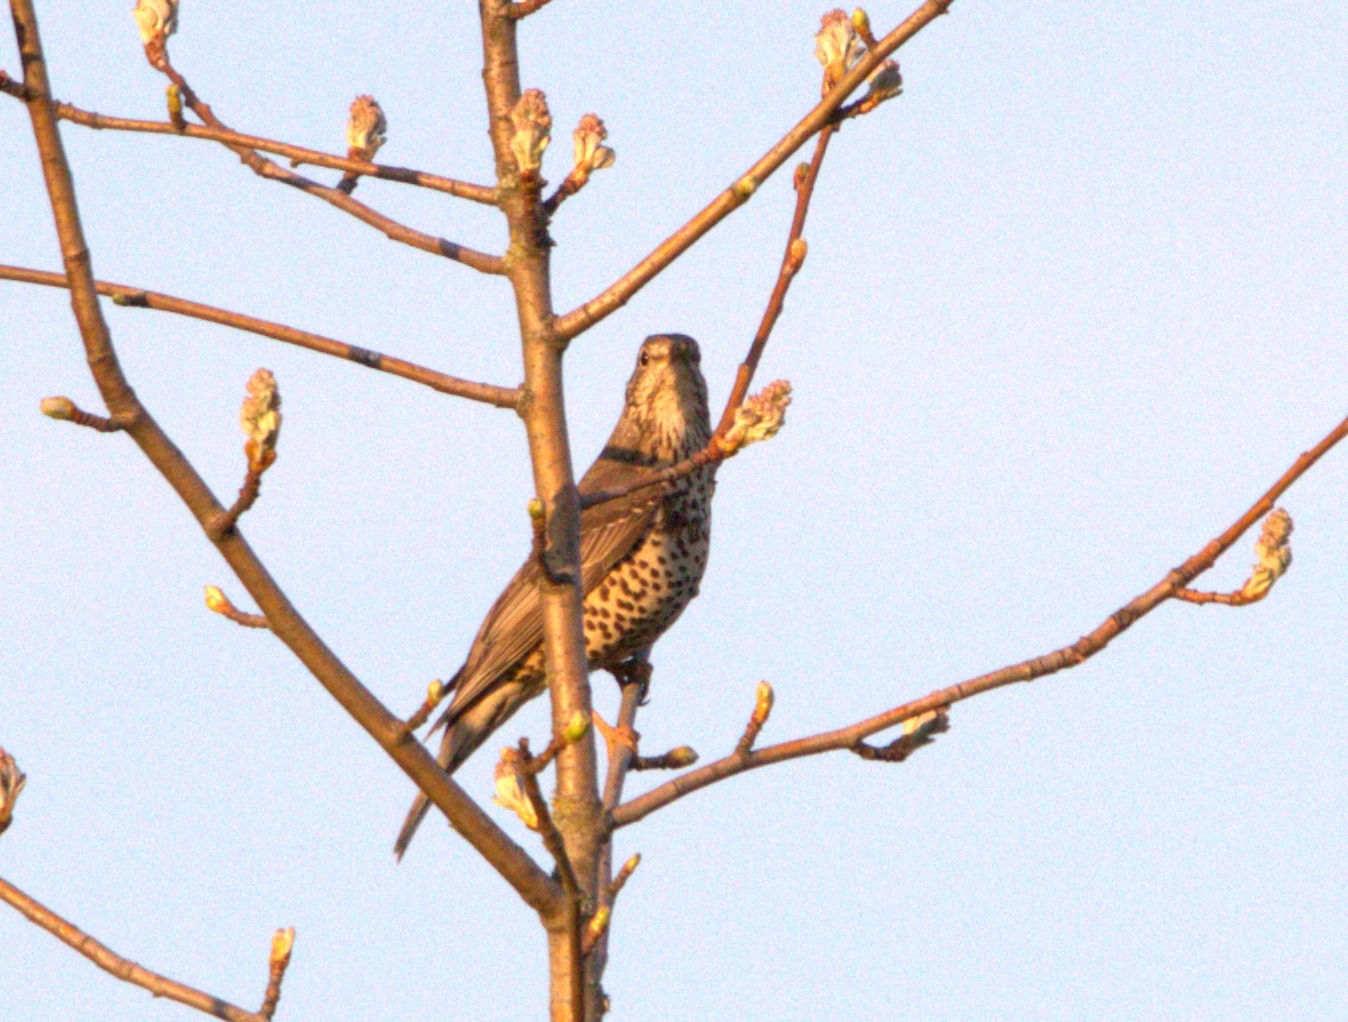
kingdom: Animalia
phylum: Chordata
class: Aves
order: Passeriformes
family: Turdidae
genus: Turdus
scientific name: Turdus viscivorus
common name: Mistle thrush
